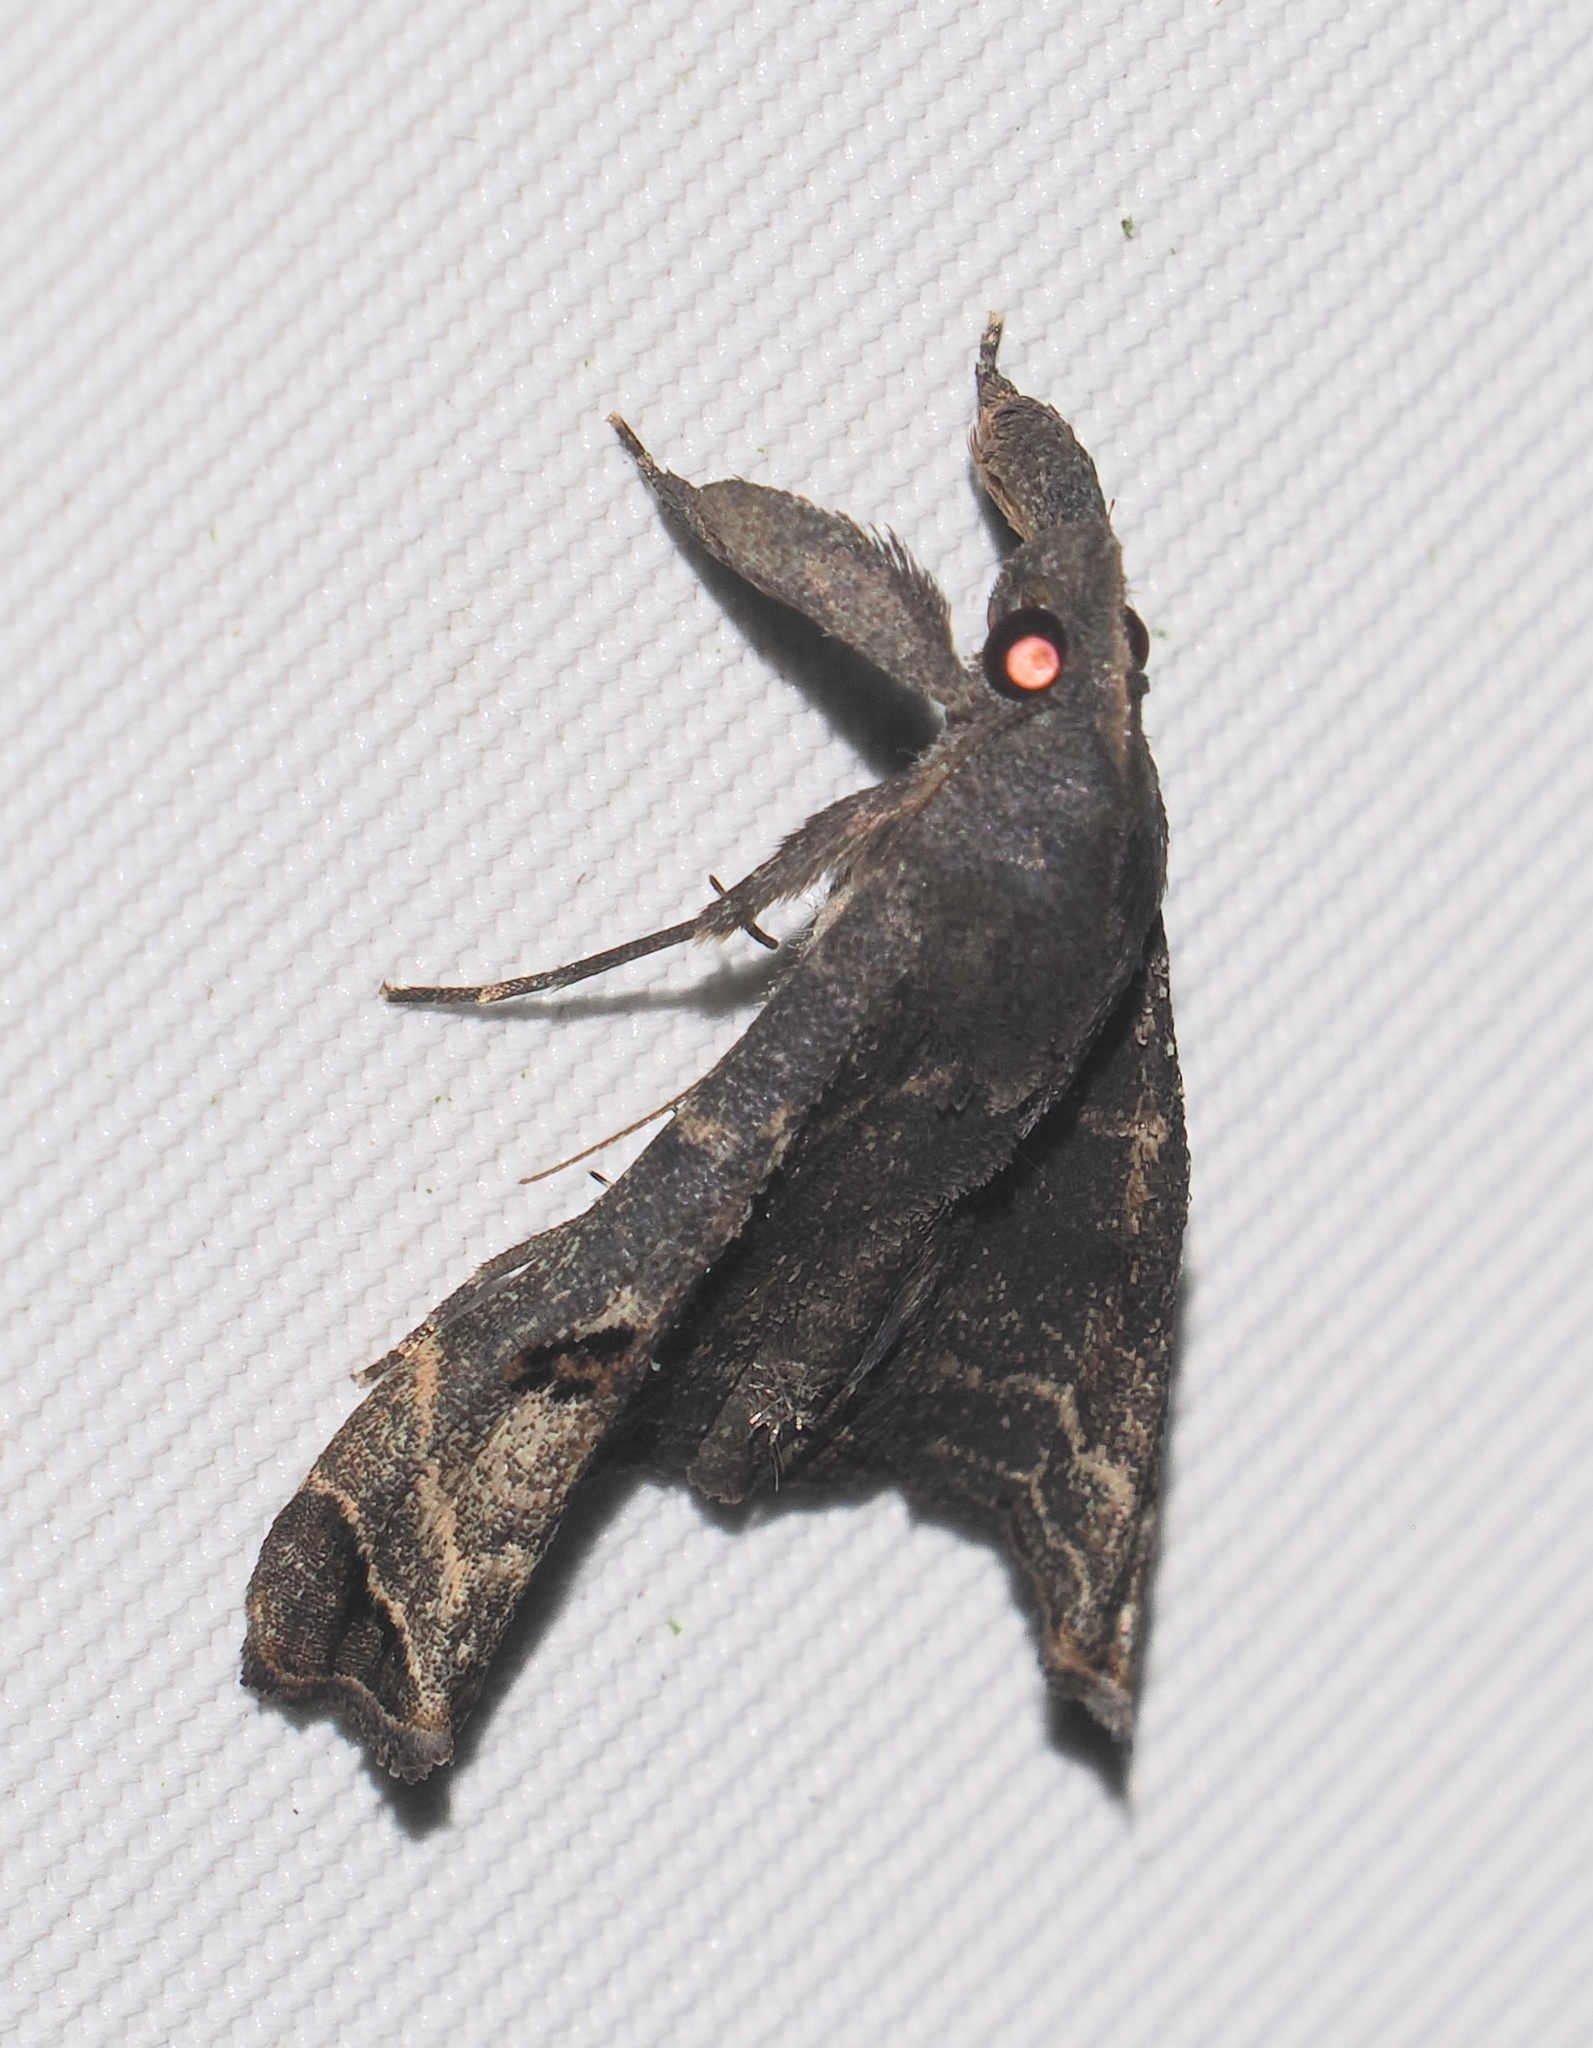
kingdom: Animalia
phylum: Arthropoda
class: Insecta
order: Lepidoptera
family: Erebidae
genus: Palthis
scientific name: Palthis bizialis
